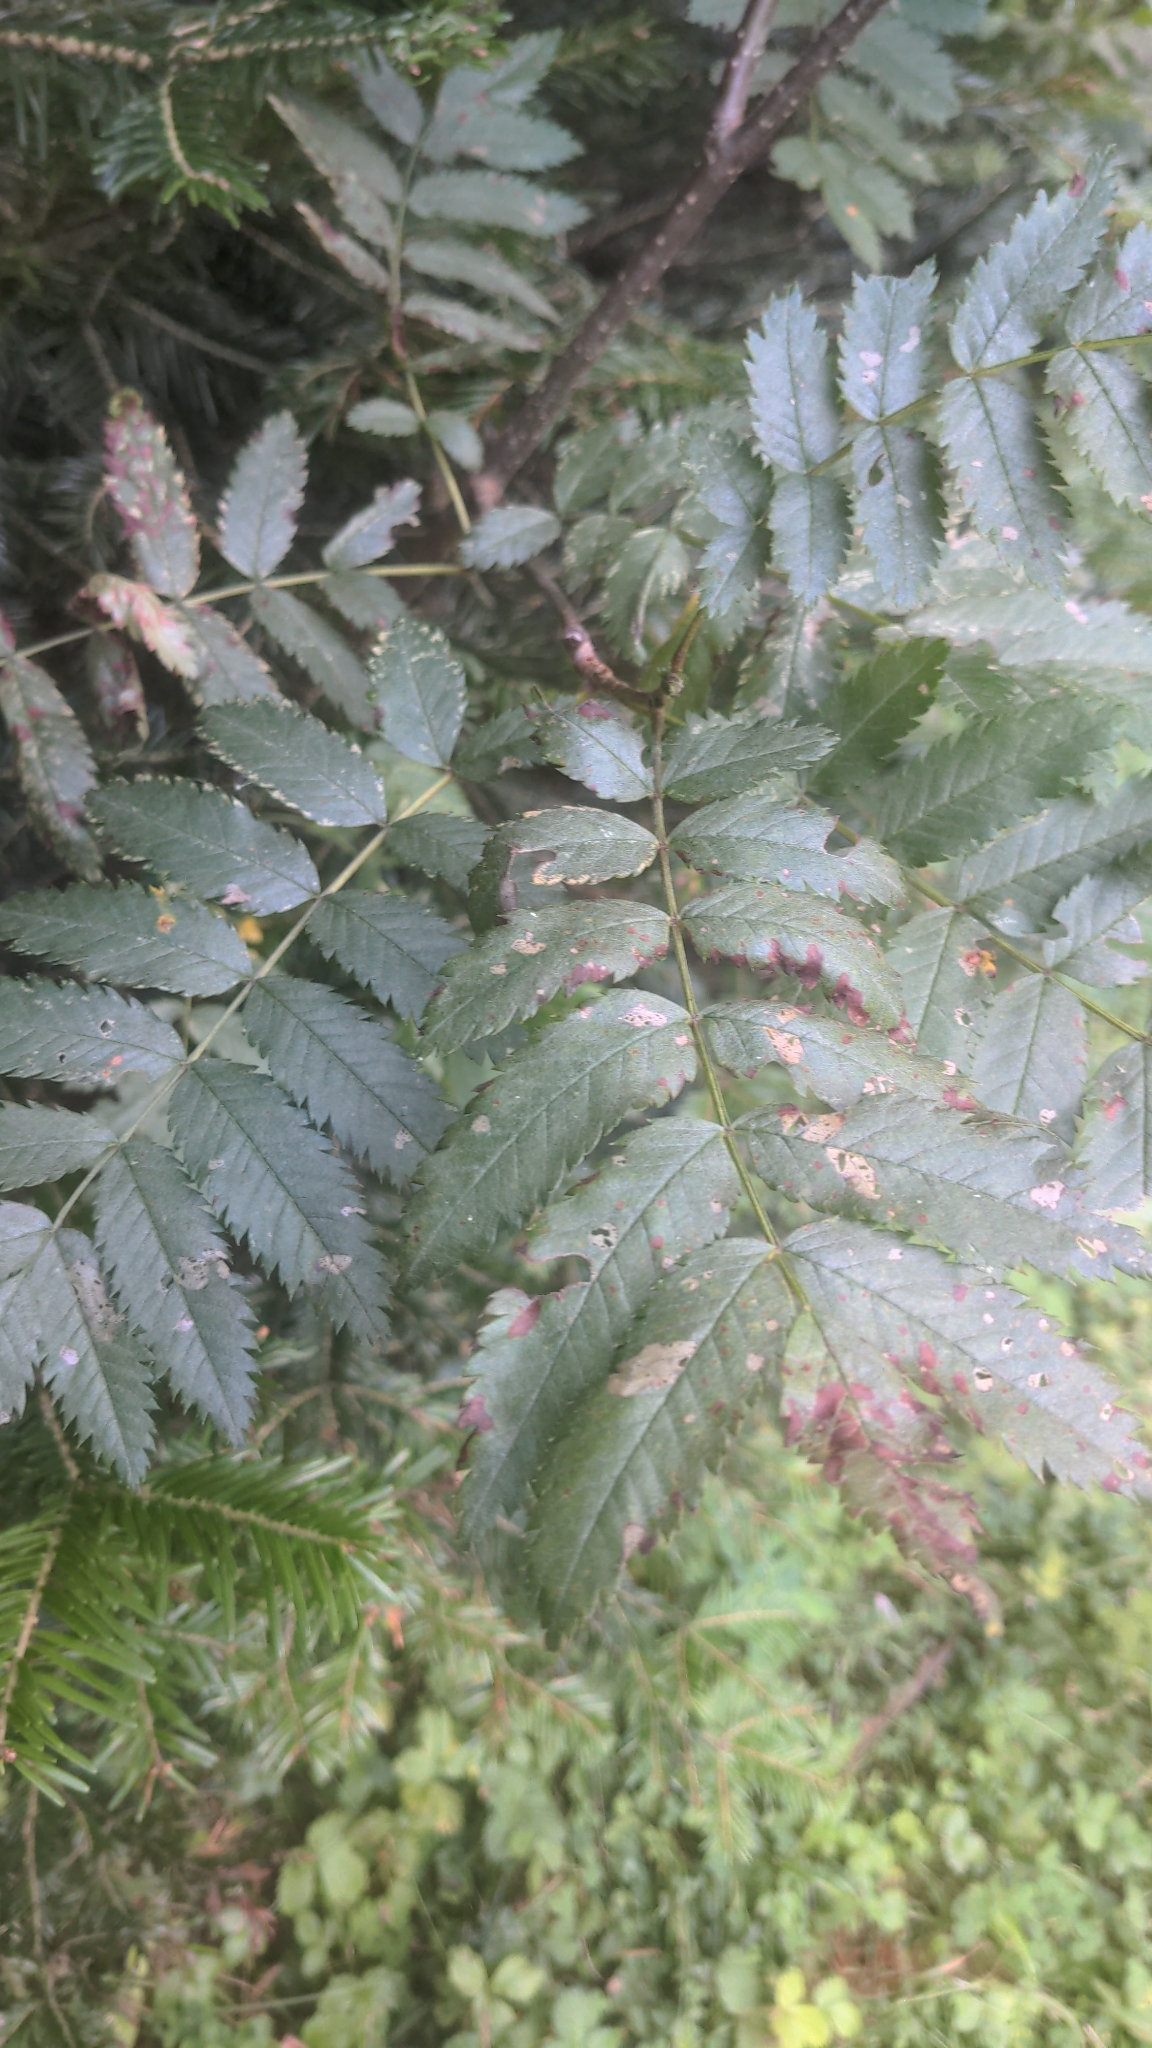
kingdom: Plantae
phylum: Tracheophyta
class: Magnoliopsida
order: Rosales
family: Rosaceae
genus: Sorbus
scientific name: Sorbus aucuparia
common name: Rowan
